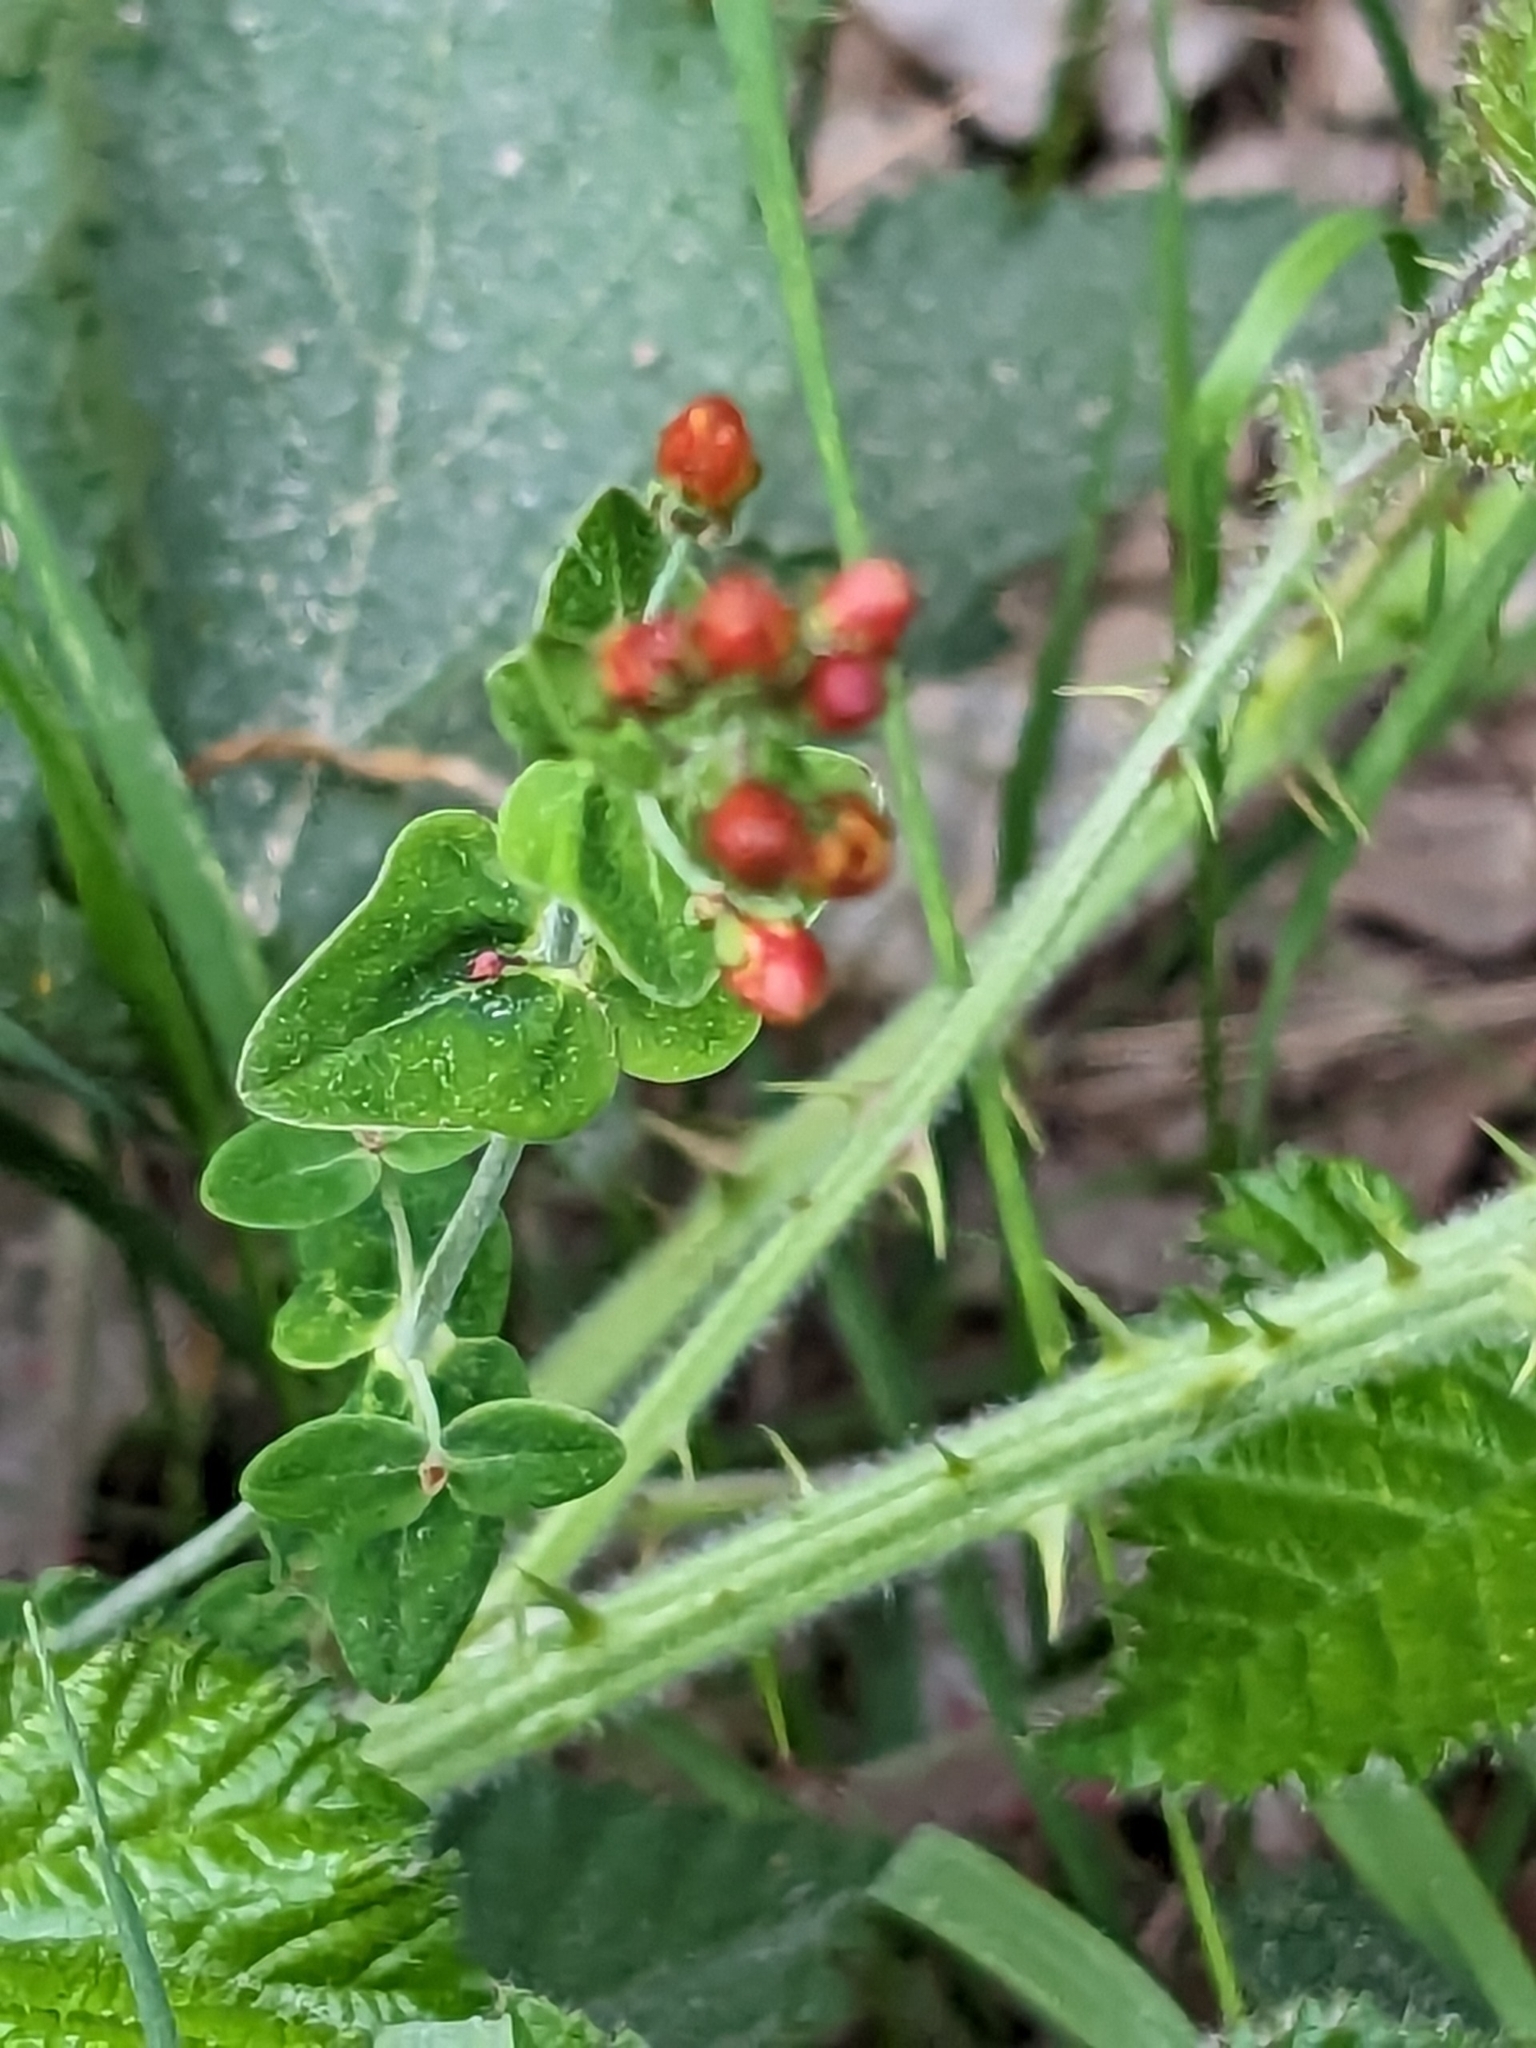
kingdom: Plantae
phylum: Tracheophyta
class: Magnoliopsida
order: Malpighiales
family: Hypericaceae
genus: Hypericum
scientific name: Hypericum pulchrum
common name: Slender st. john's-wort
